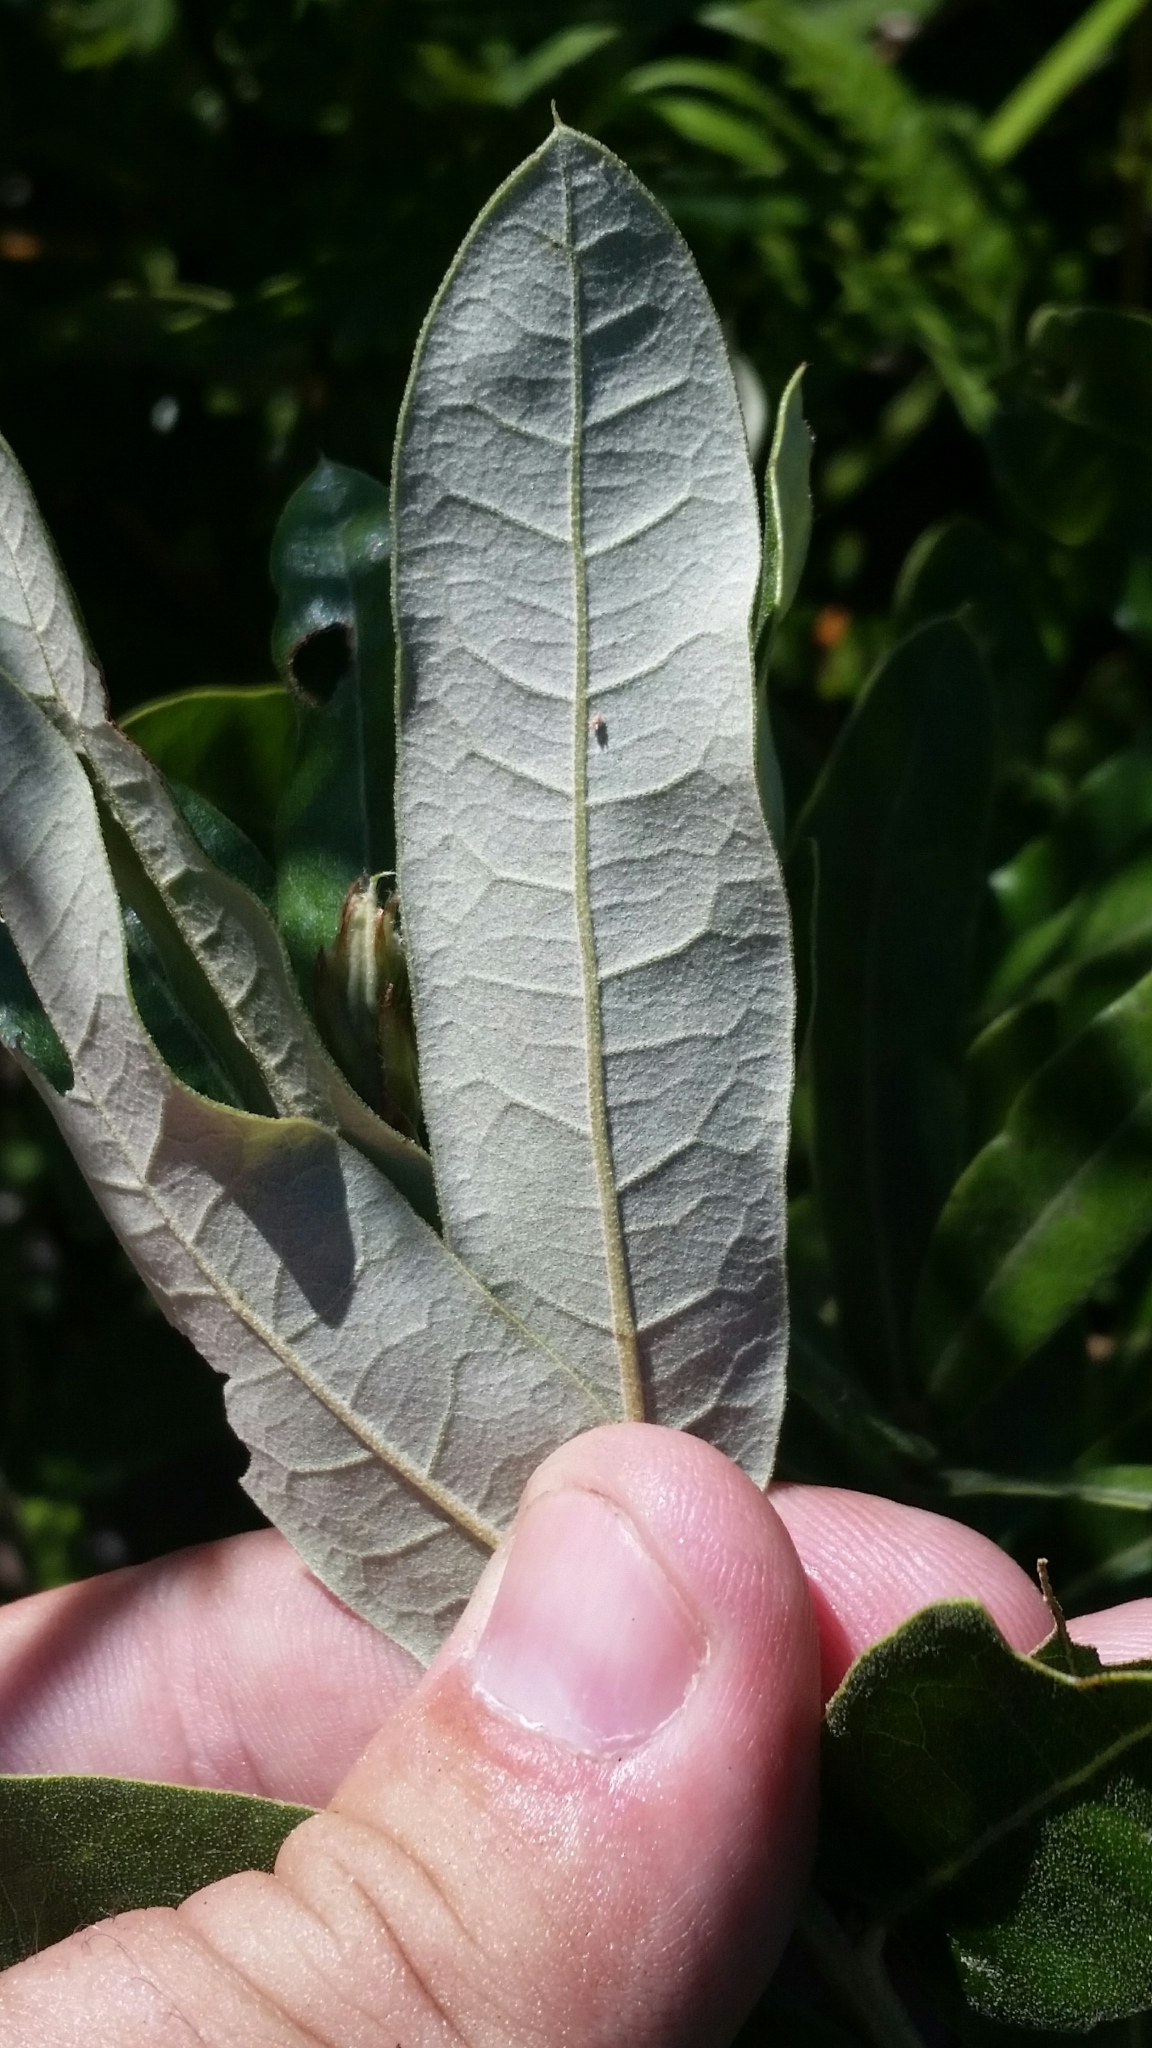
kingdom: Plantae
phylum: Tracheophyta
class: Magnoliopsida
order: Fagales
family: Fagaceae
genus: Quercus
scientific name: Quercus pumila
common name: Runner oak
